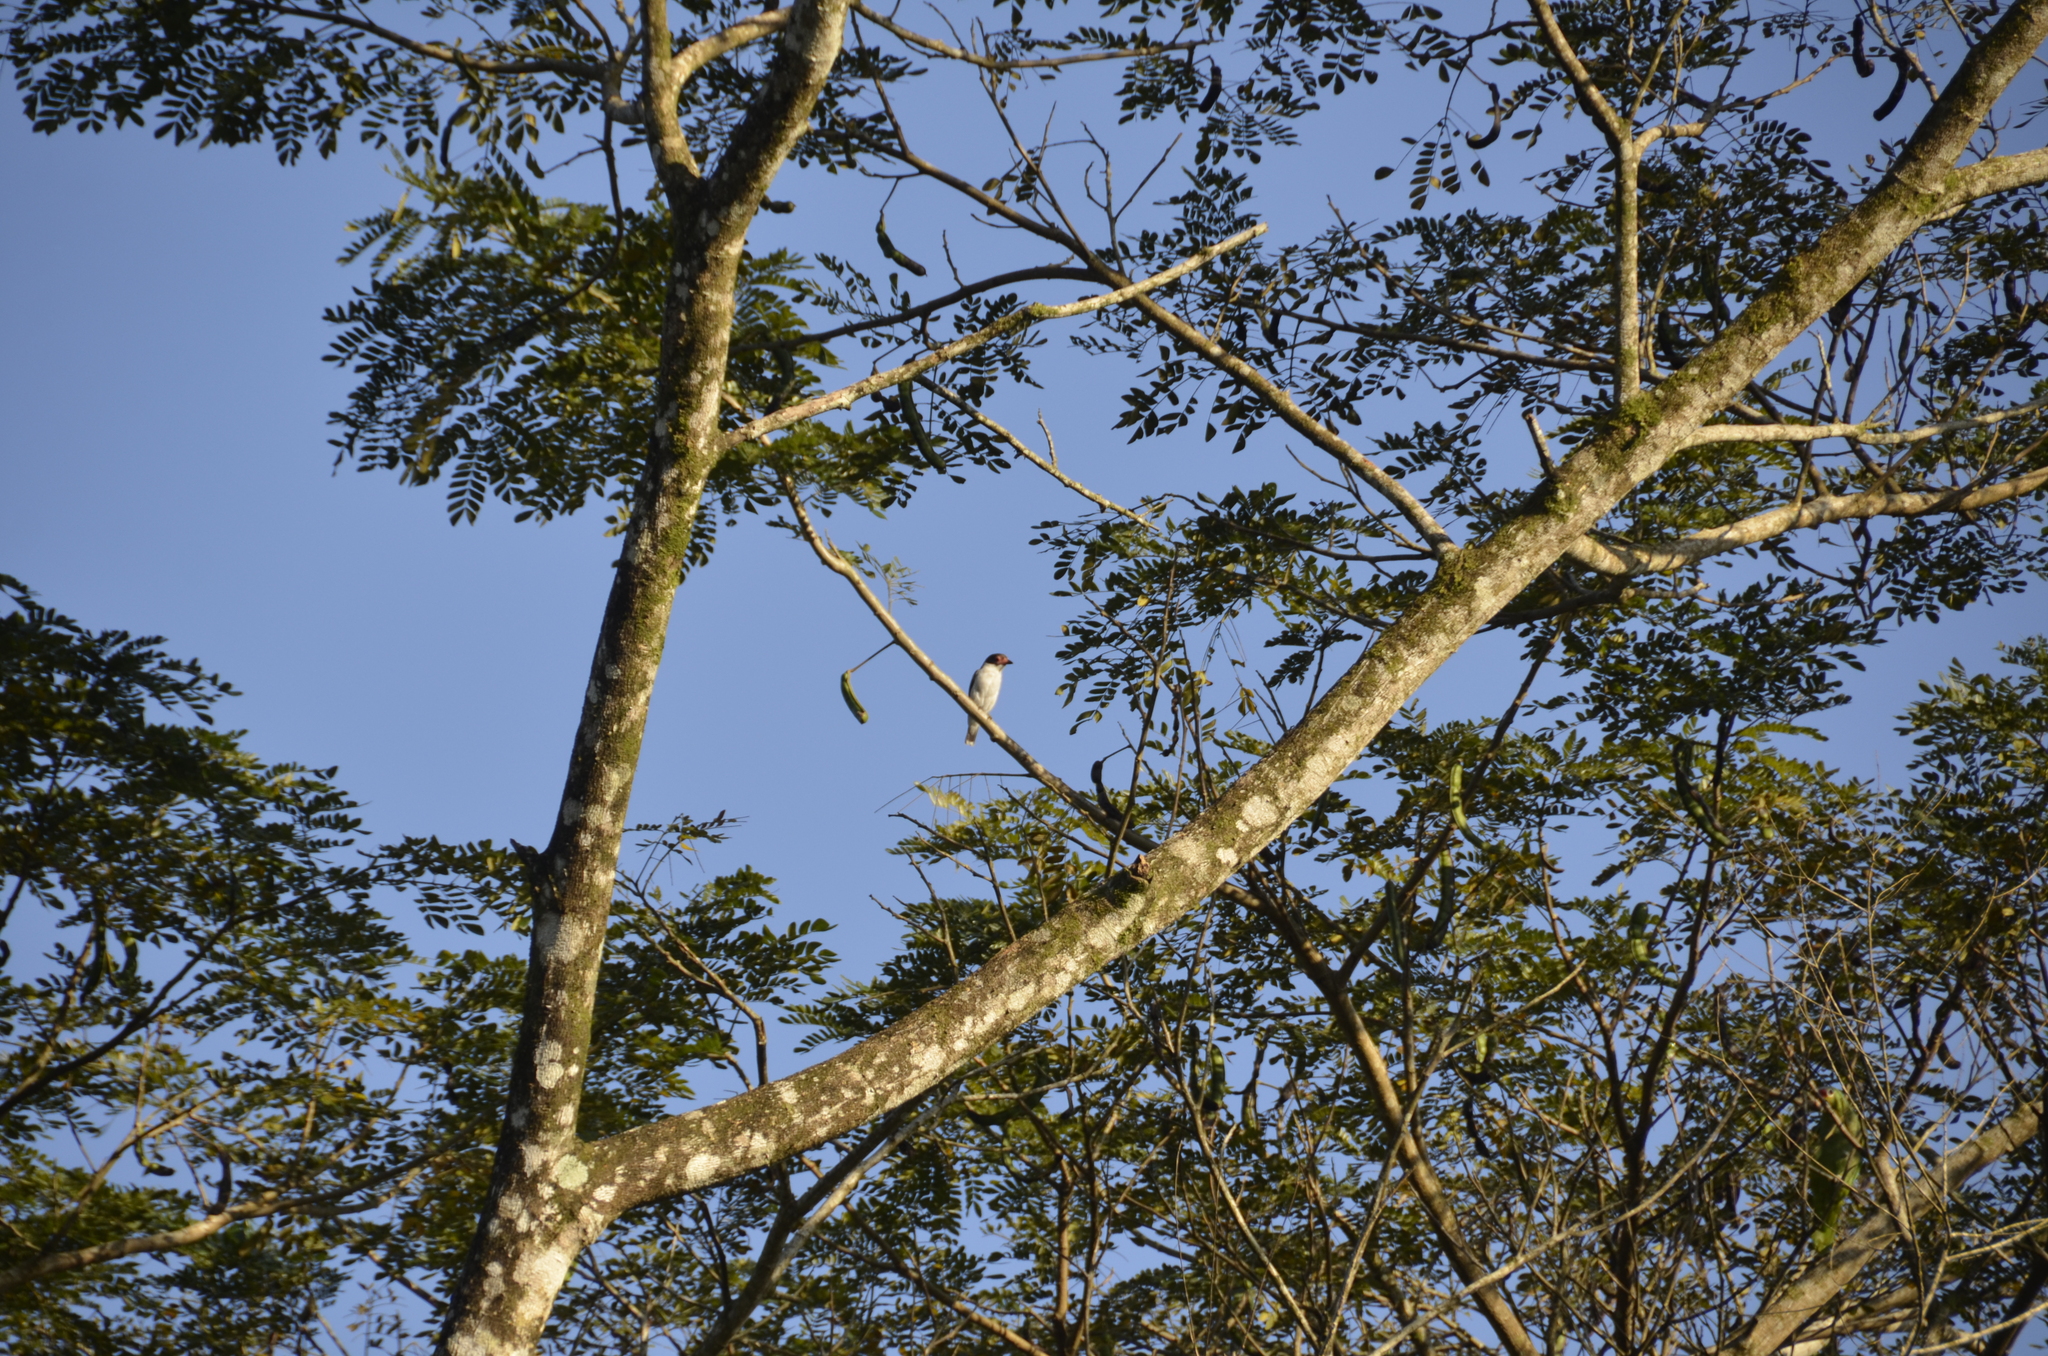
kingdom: Animalia
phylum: Chordata
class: Aves
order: Passeriformes
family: Cotingidae
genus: Tityra
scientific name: Tityra semifasciata
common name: Masked tityra
